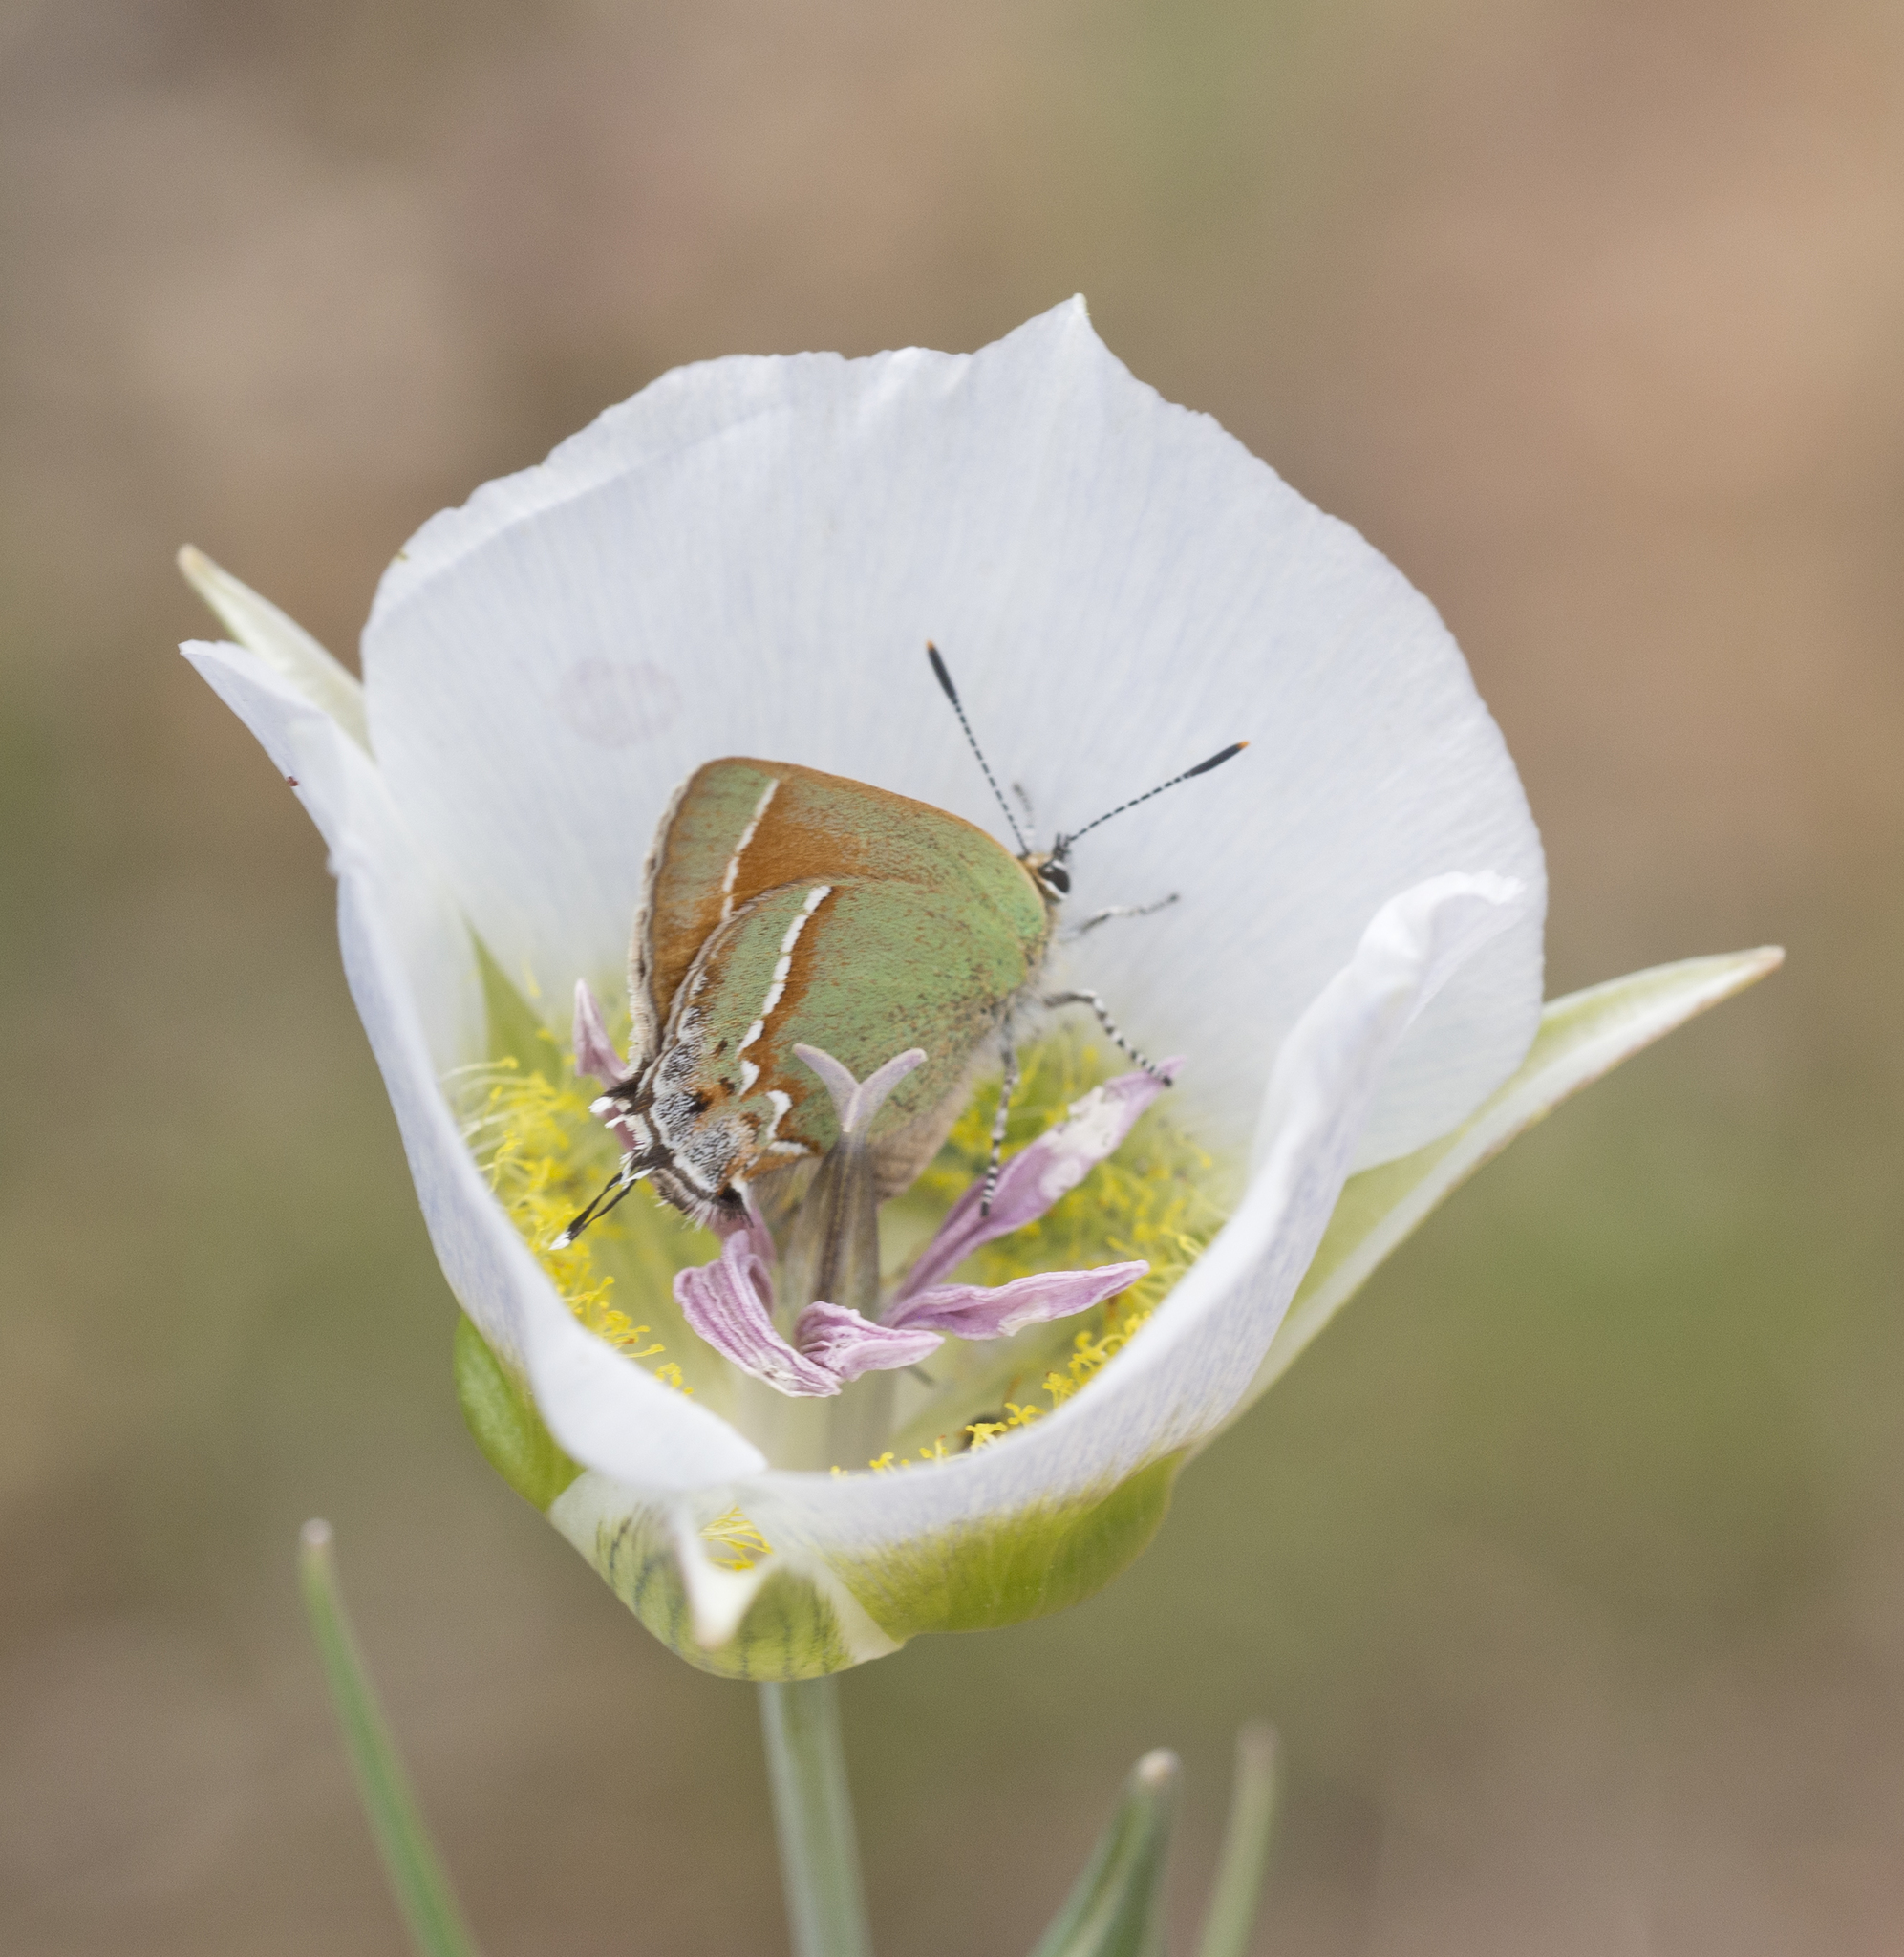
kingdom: Animalia
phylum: Arthropoda
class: Insecta
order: Lepidoptera
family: Lycaenidae
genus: Mitoura
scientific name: Mitoura siva
